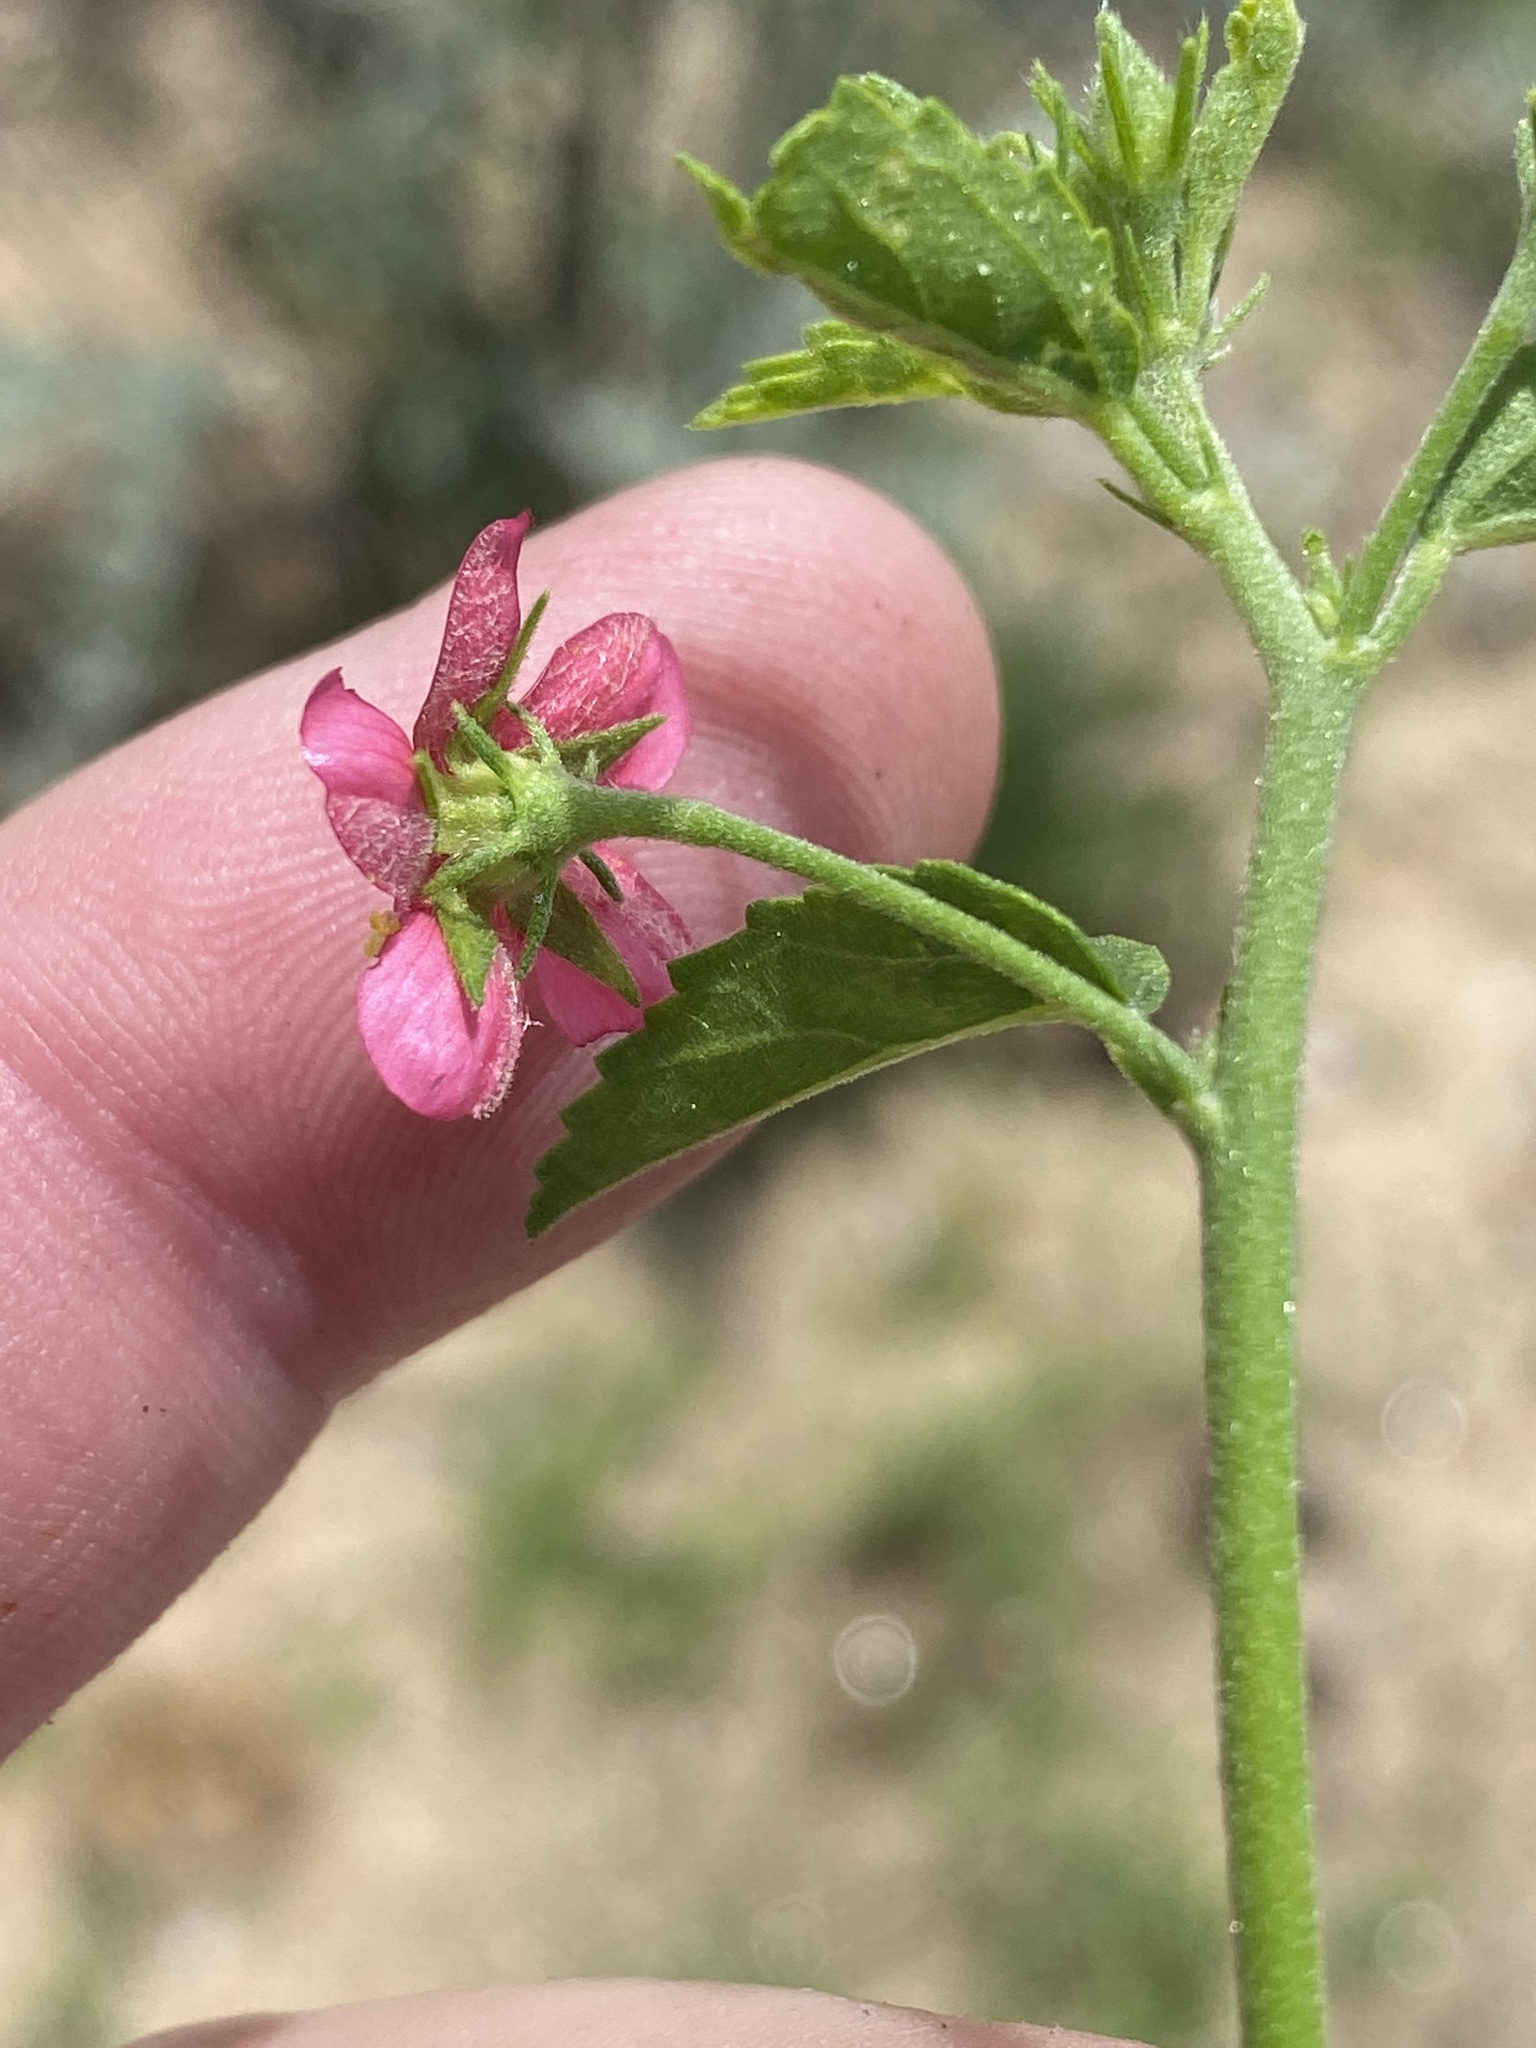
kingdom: Plantae
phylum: Tracheophyta
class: Magnoliopsida
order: Malvales
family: Malvaceae
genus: Hibiscus
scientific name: Hibiscus elliottiae
